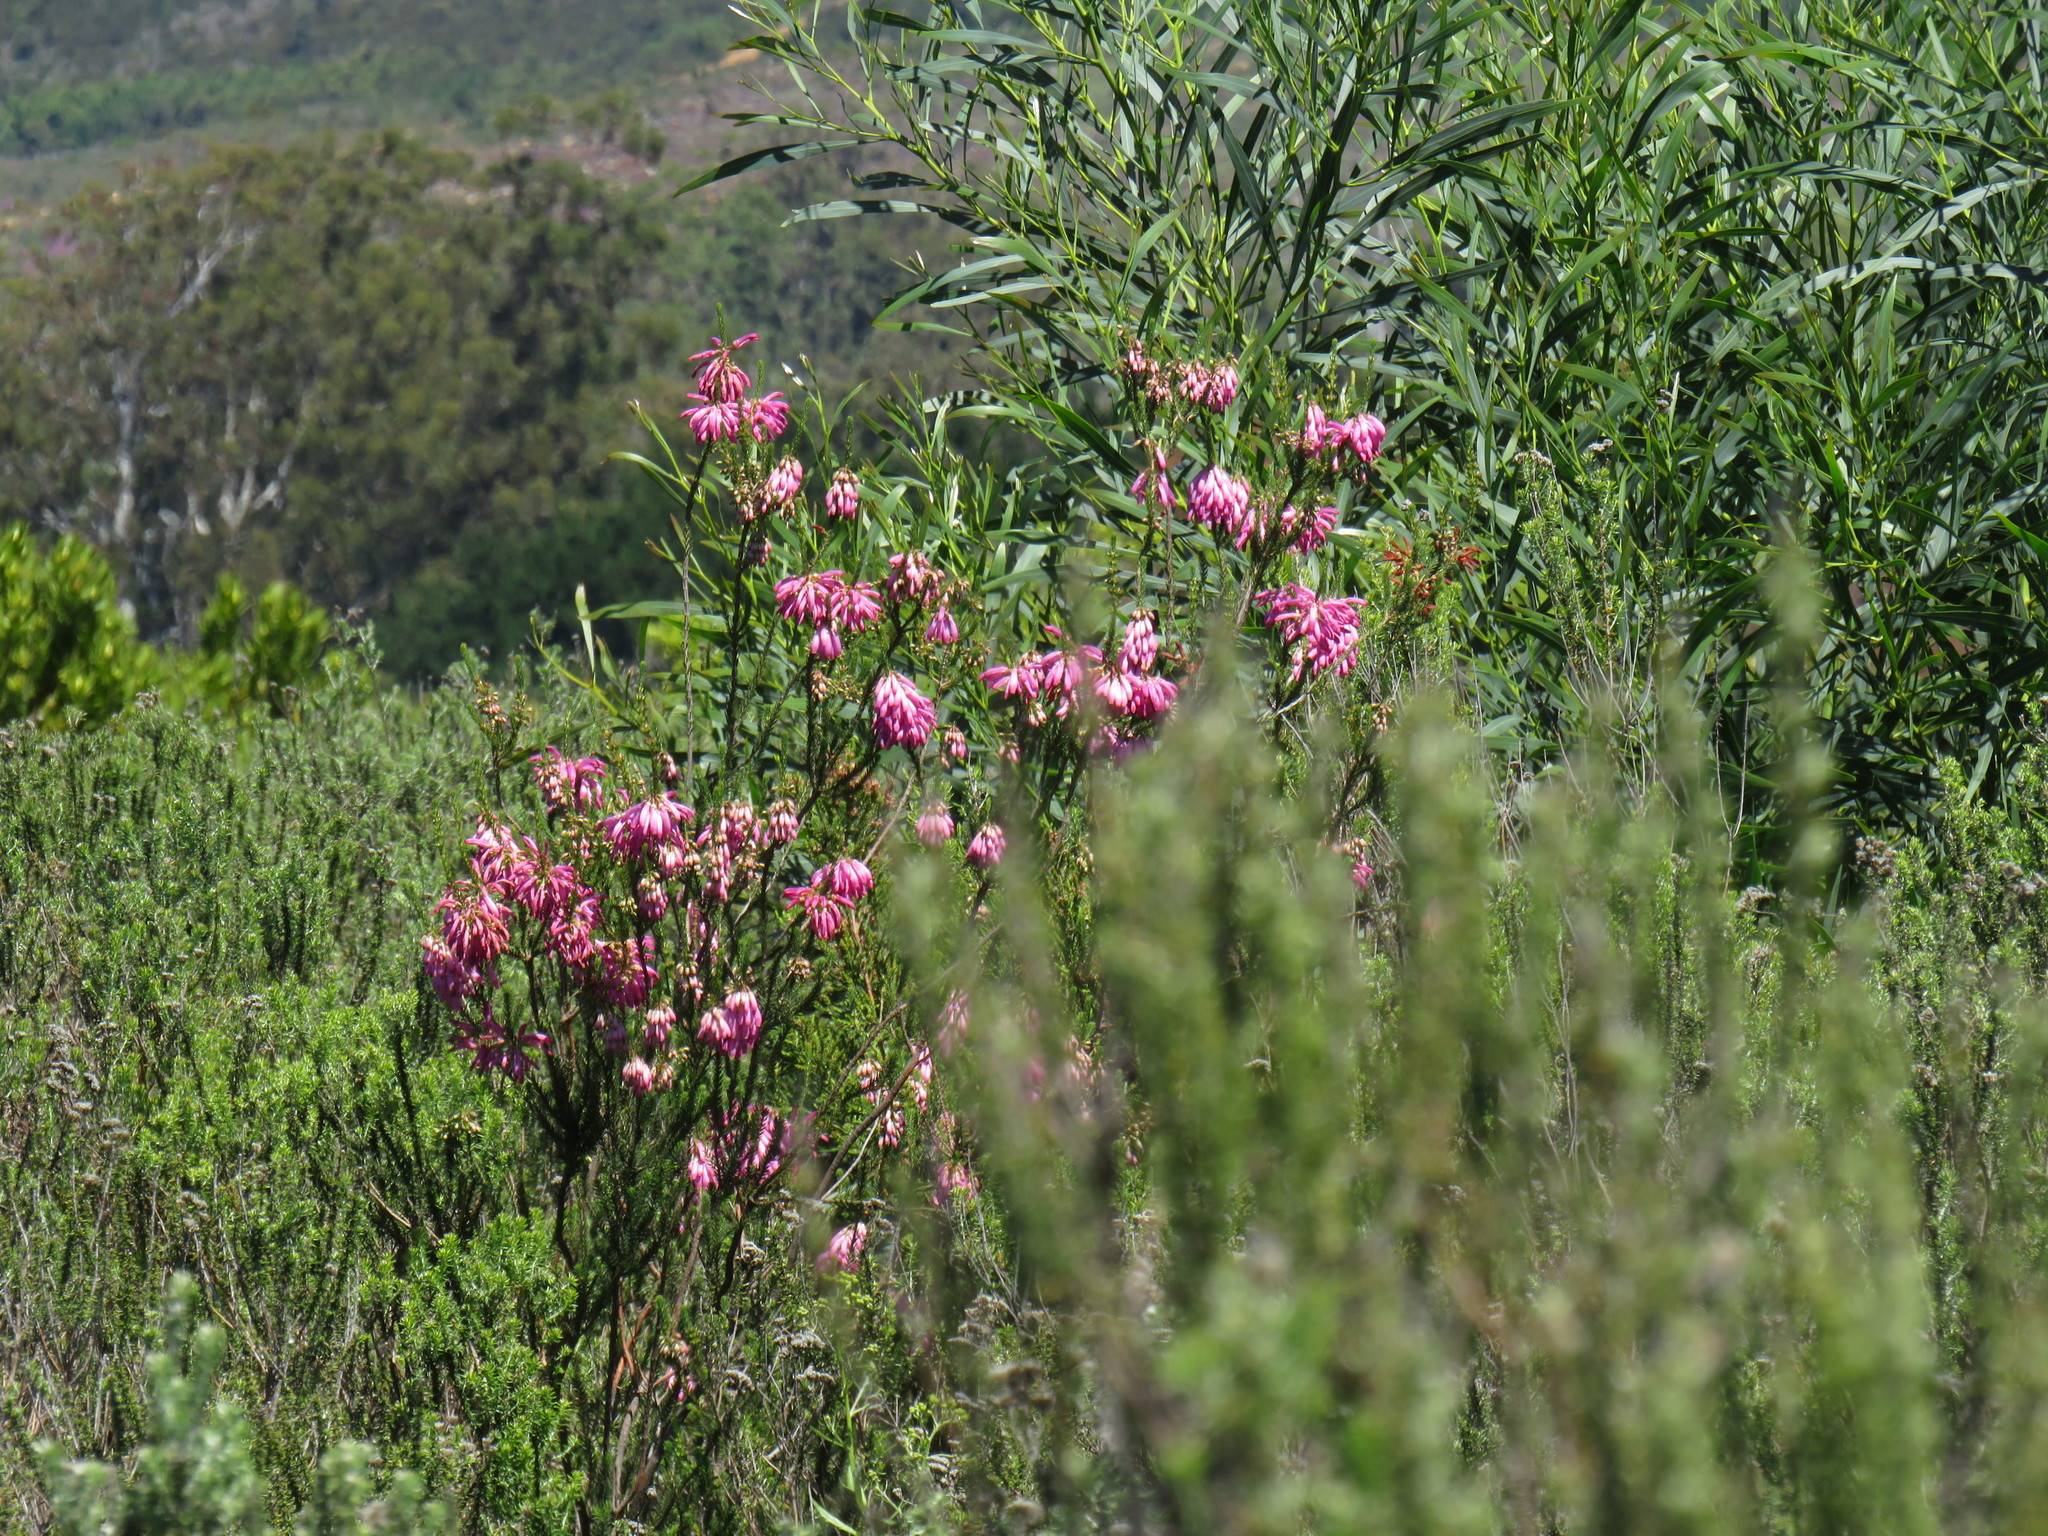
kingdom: Plantae
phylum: Tracheophyta
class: Magnoliopsida
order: Ericales
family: Ericaceae
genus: Erica
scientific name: Erica mammosa
